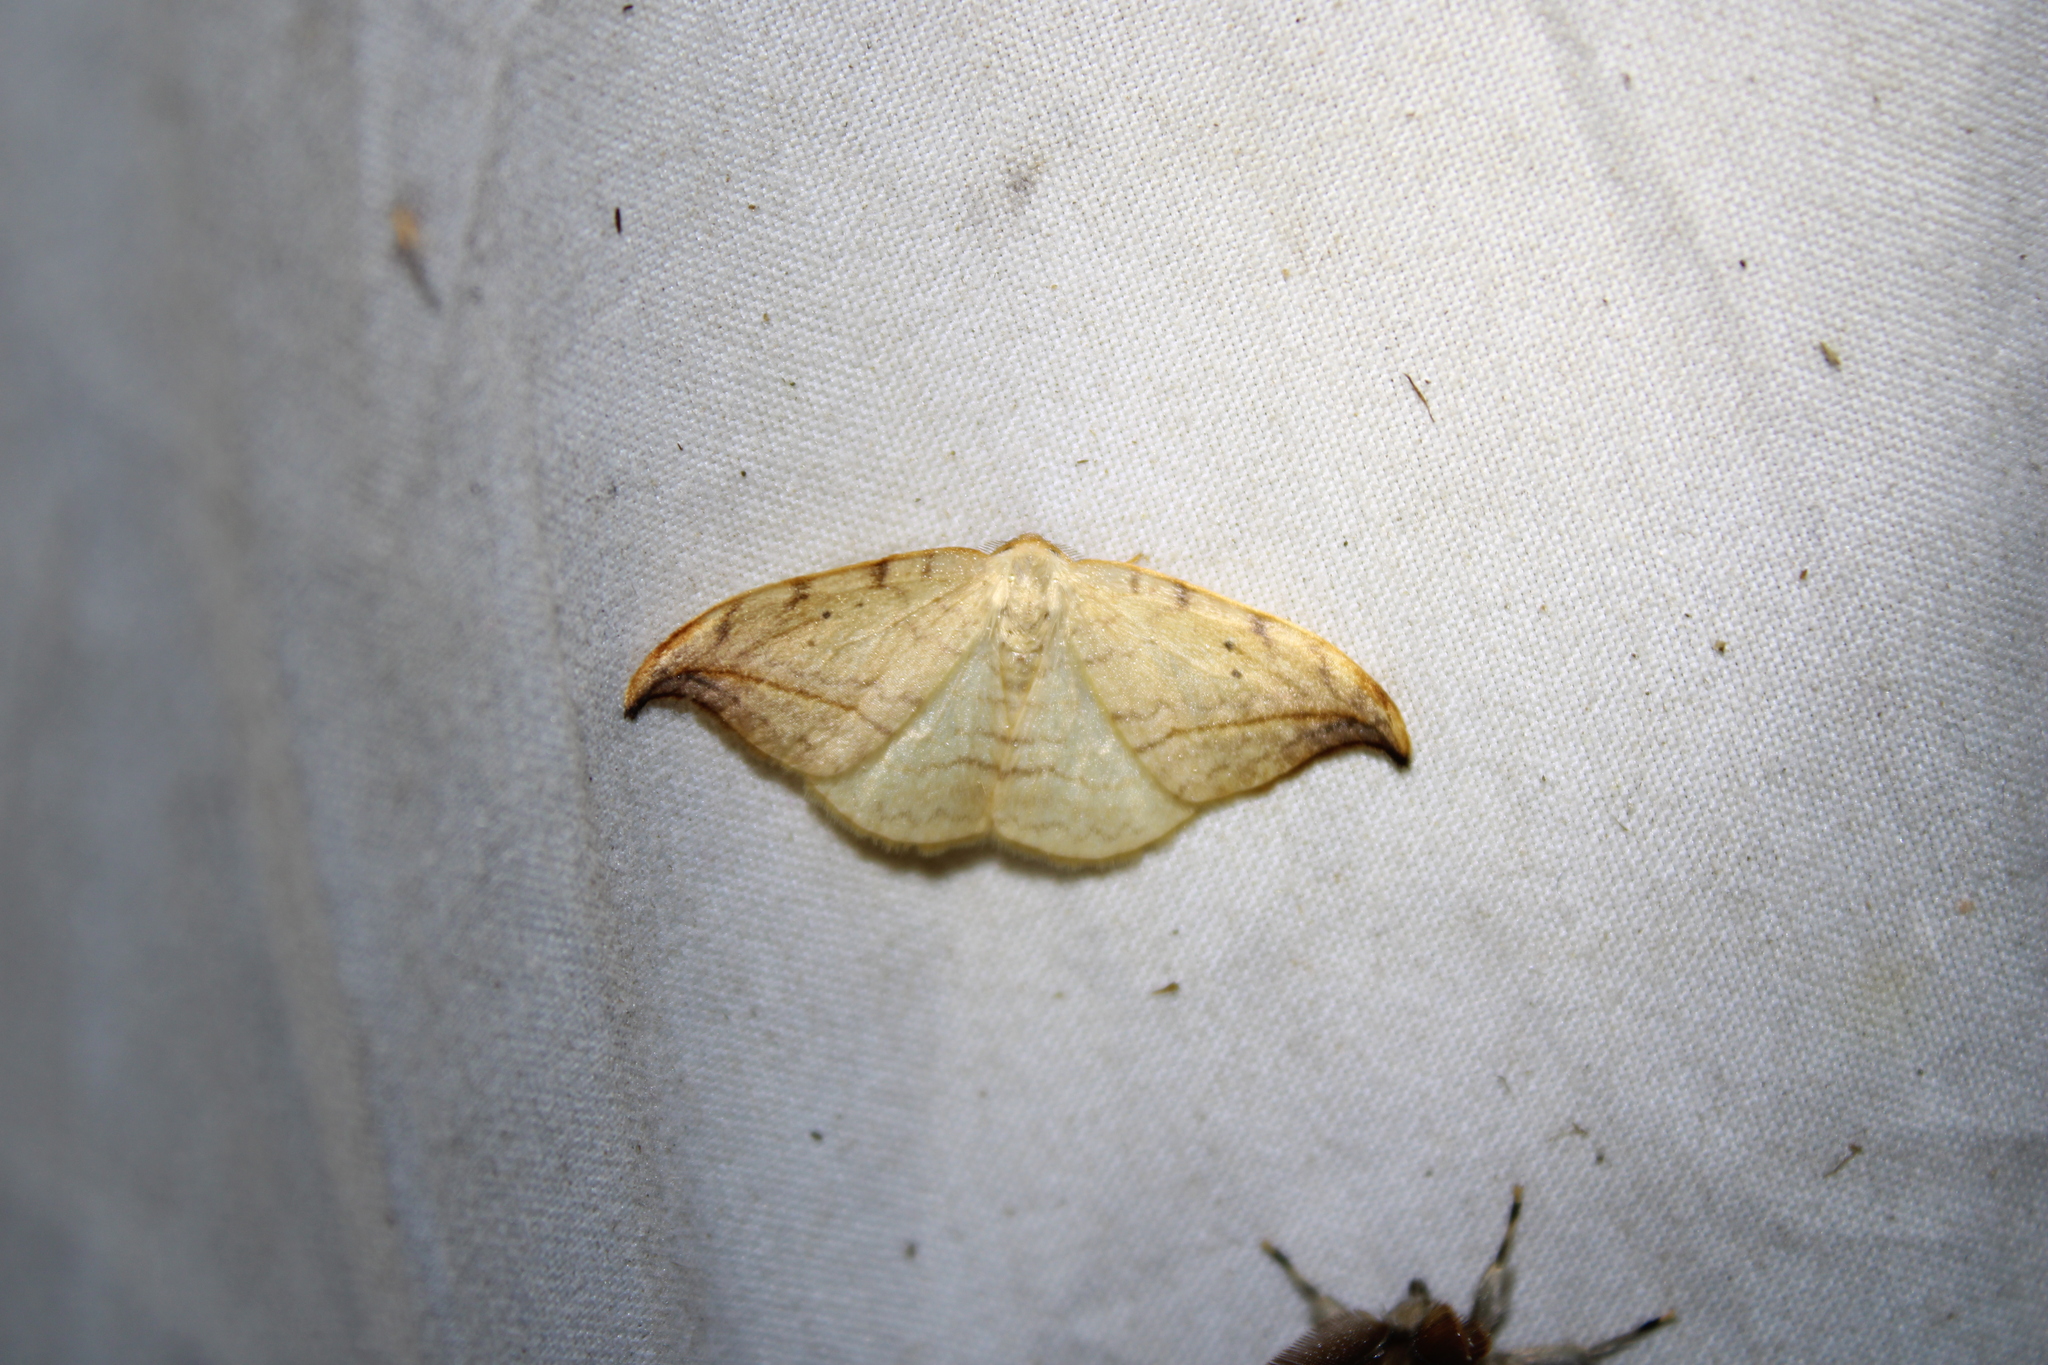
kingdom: Animalia
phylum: Arthropoda
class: Insecta
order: Lepidoptera
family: Drepanidae
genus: Drepana
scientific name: Drepana arcuata
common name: Arched hooktip moth
